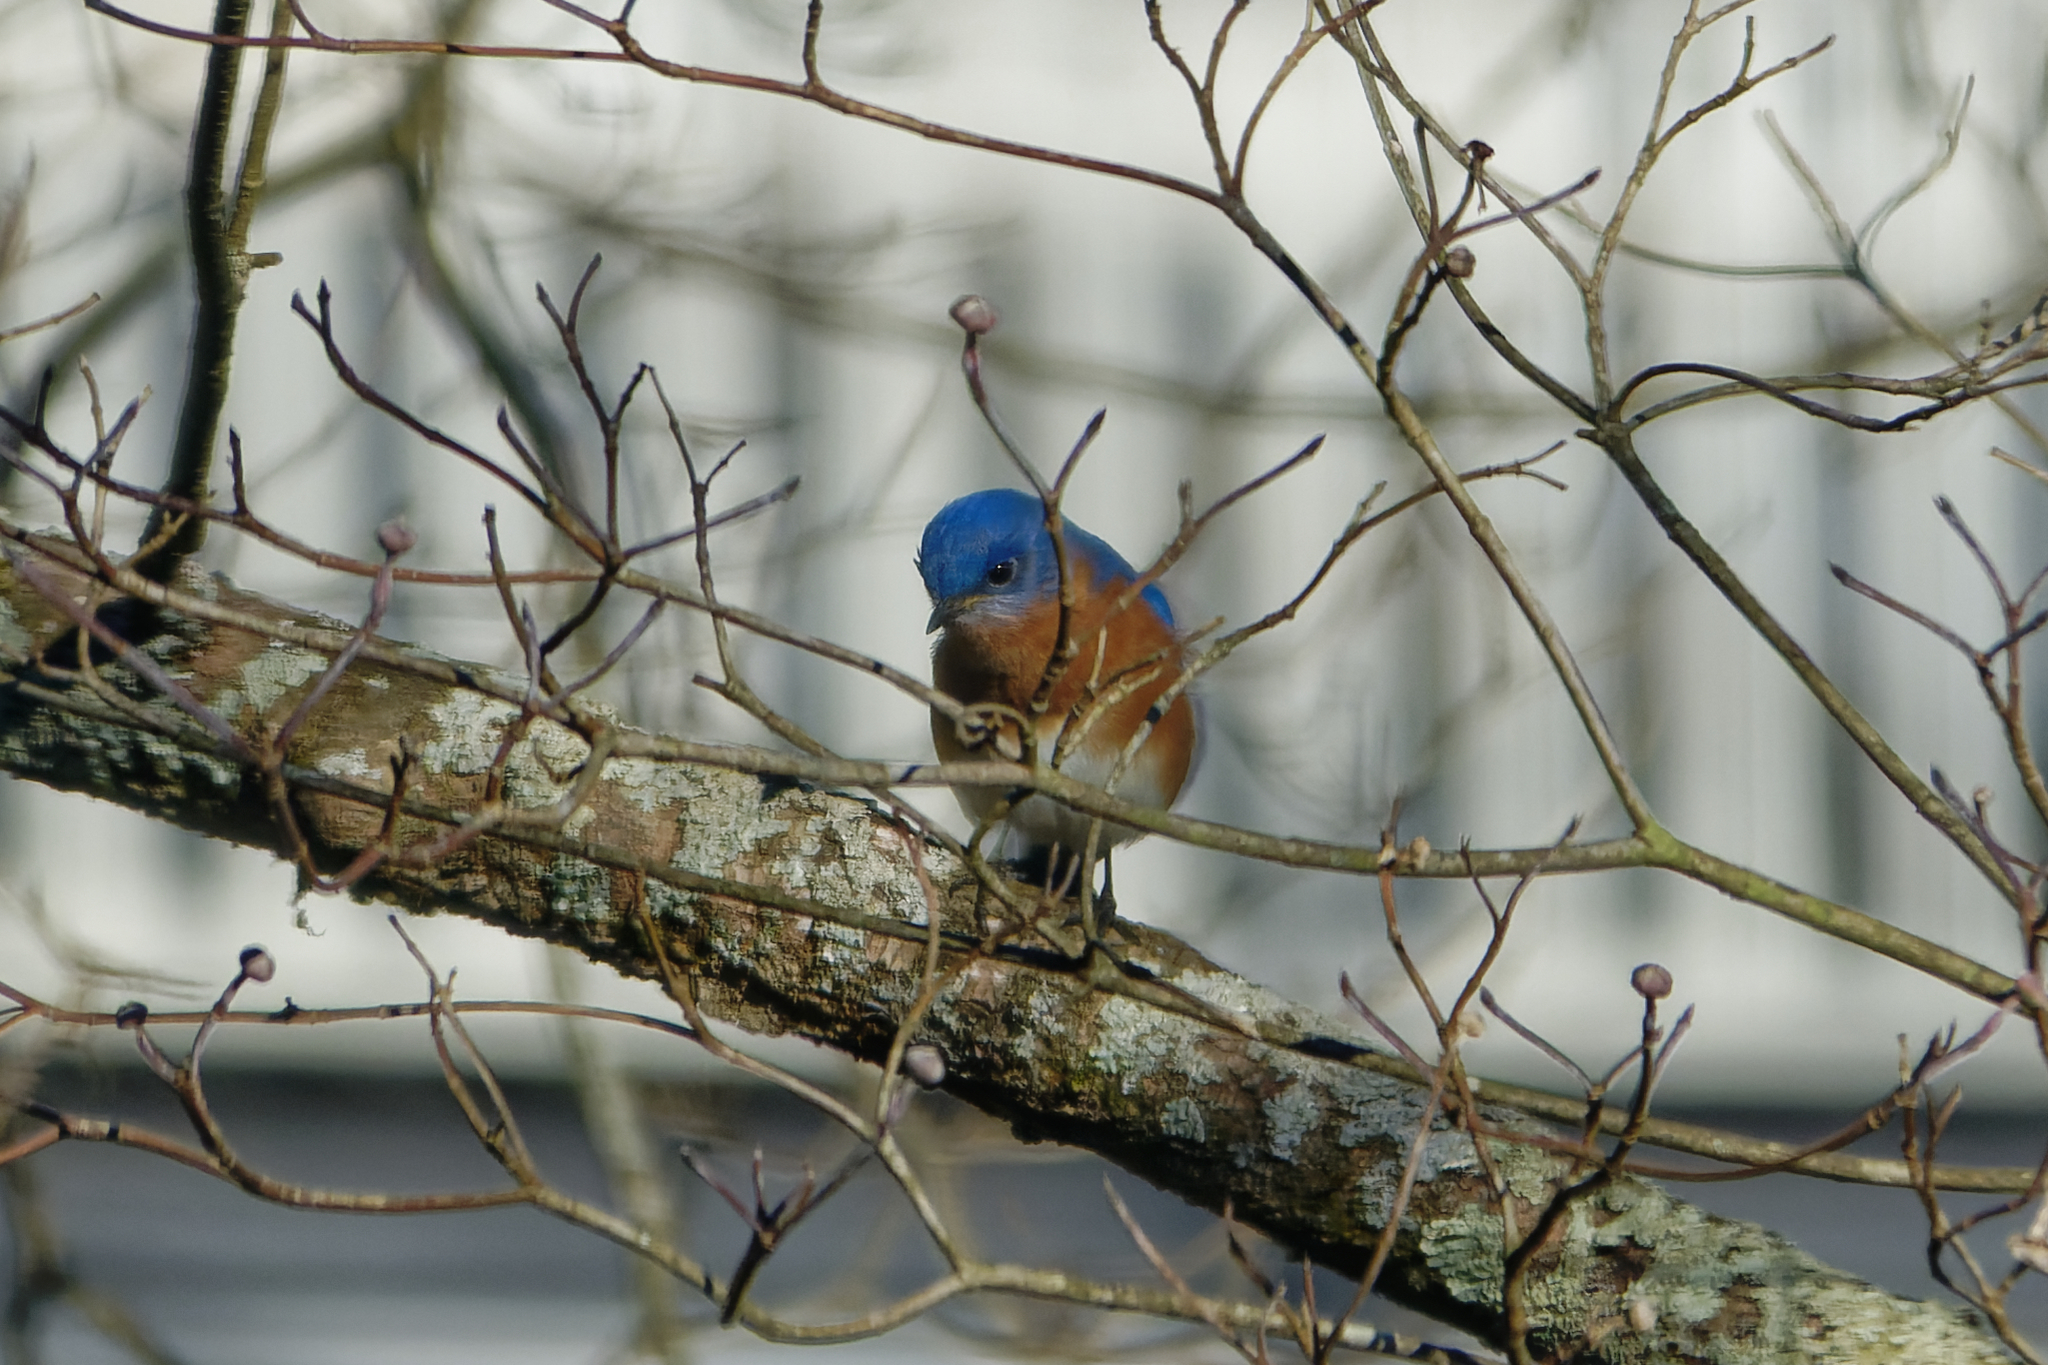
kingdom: Animalia
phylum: Chordata
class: Aves
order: Passeriformes
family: Turdidae
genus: Sialia
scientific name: Sialia sialis
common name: Eastern bluebird
